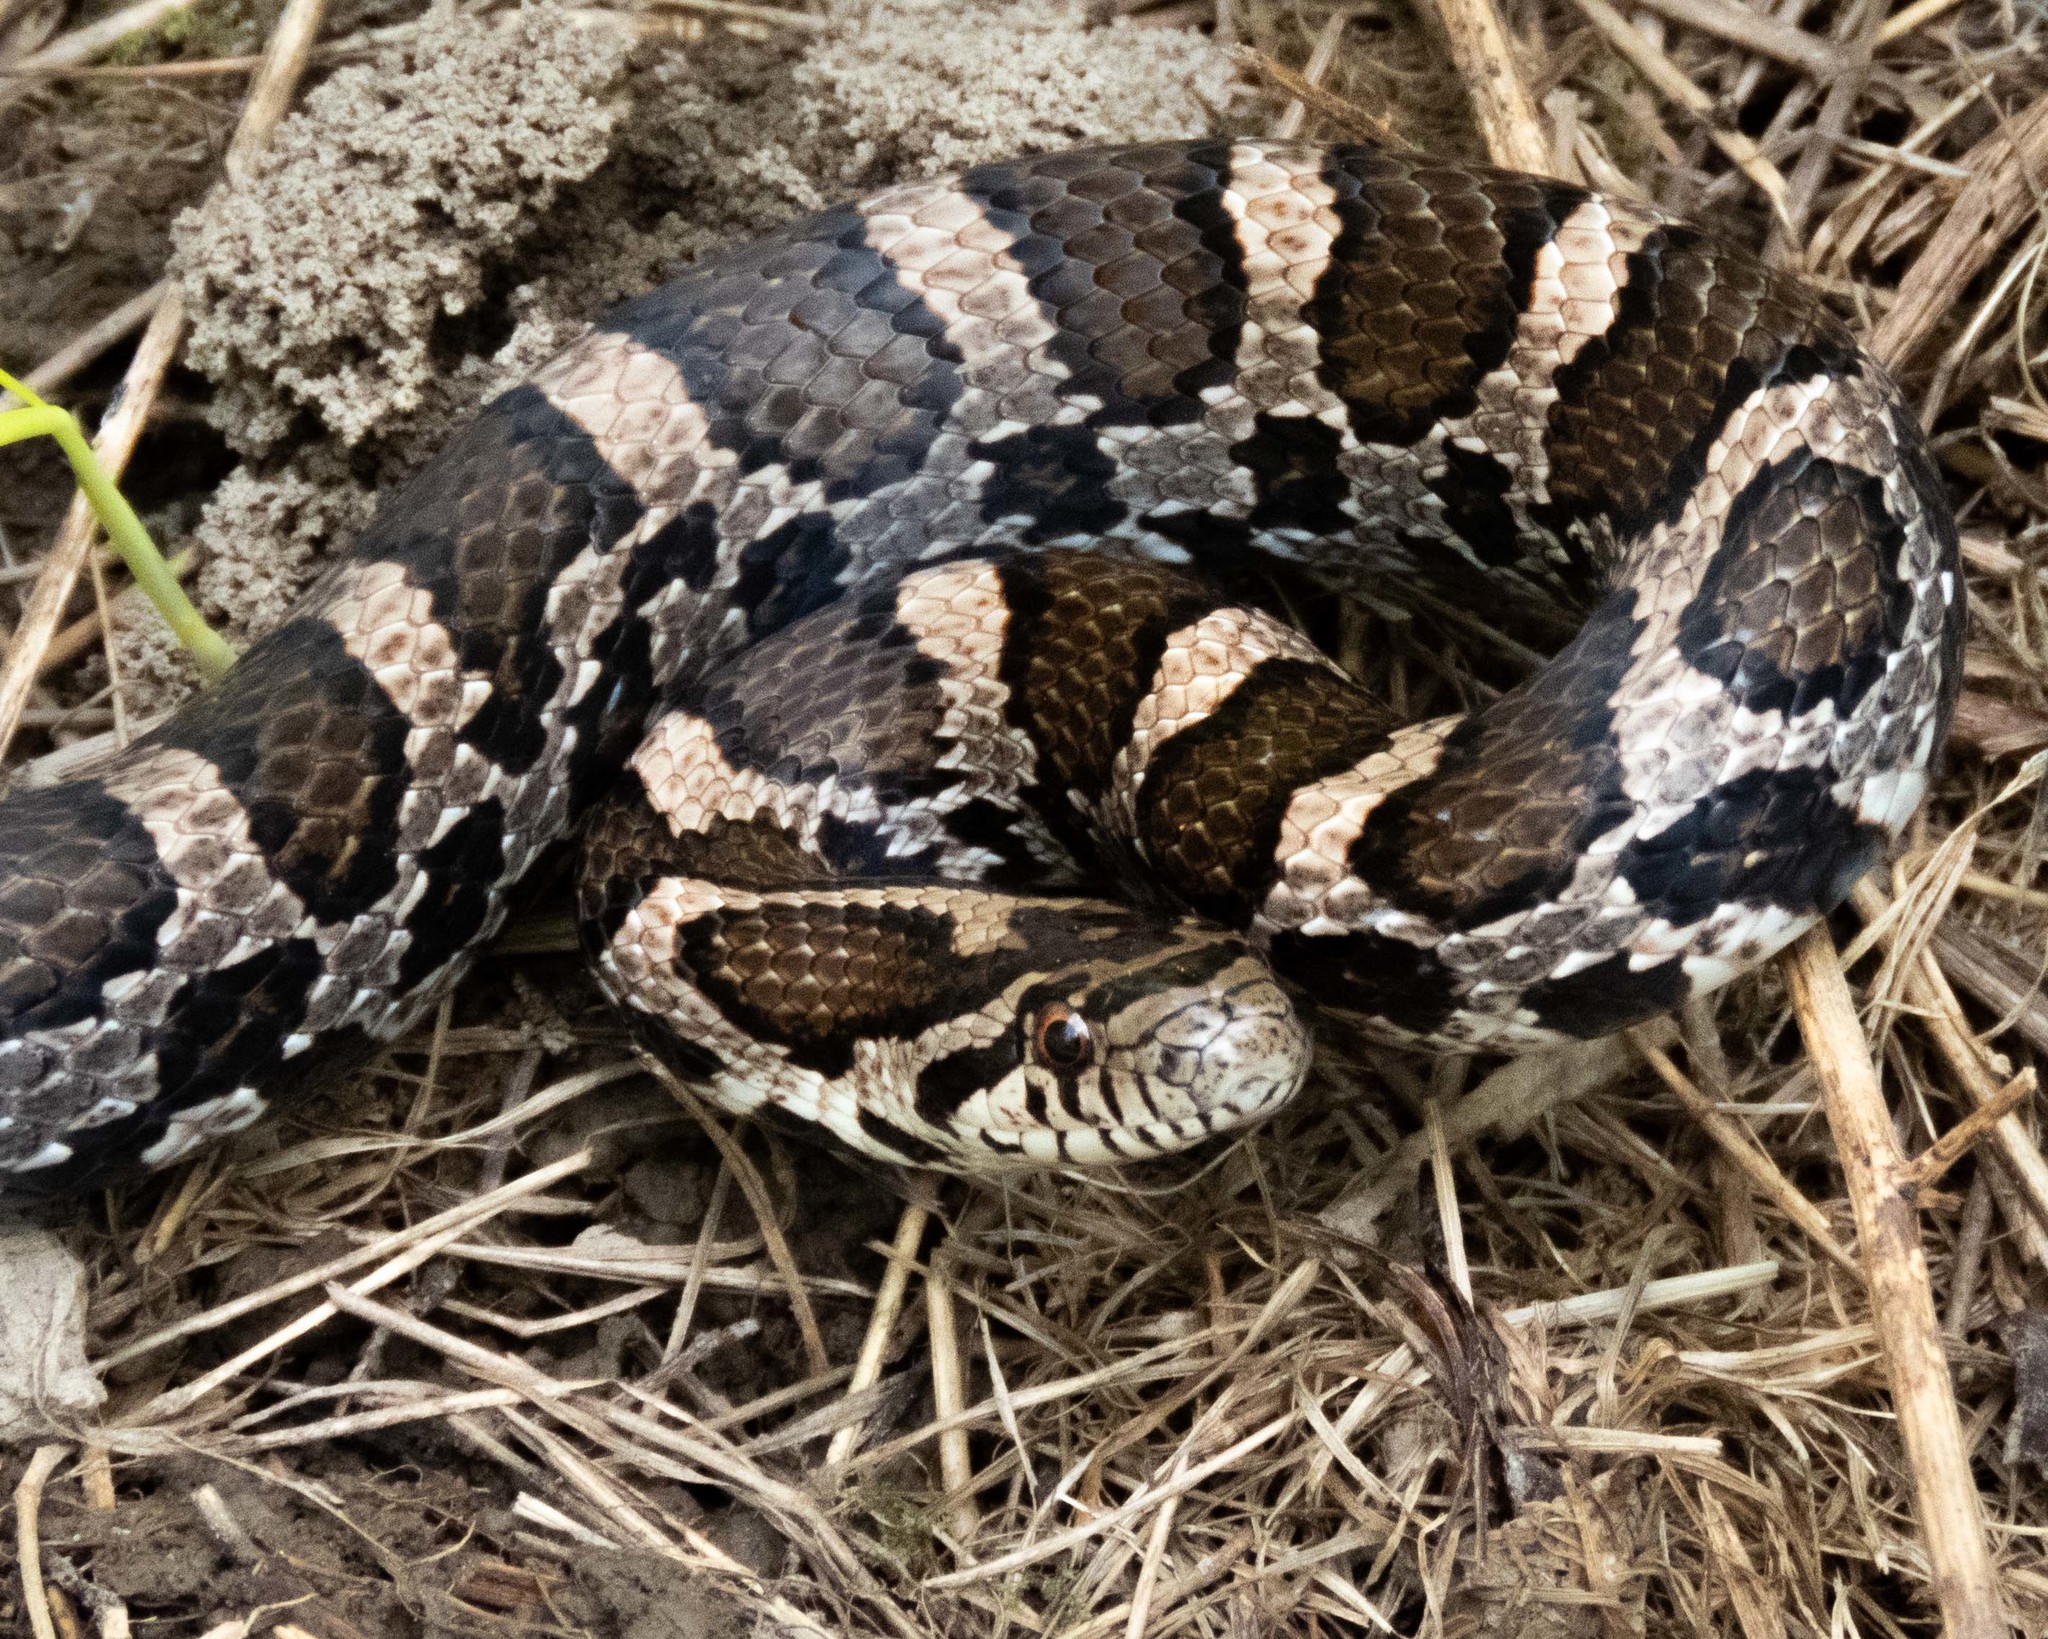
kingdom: Animalia
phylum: Chordata
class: Squamata
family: Colubridae
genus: Lampropeltis
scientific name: Lampropeltis triangulum
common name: Eastern milksnake
